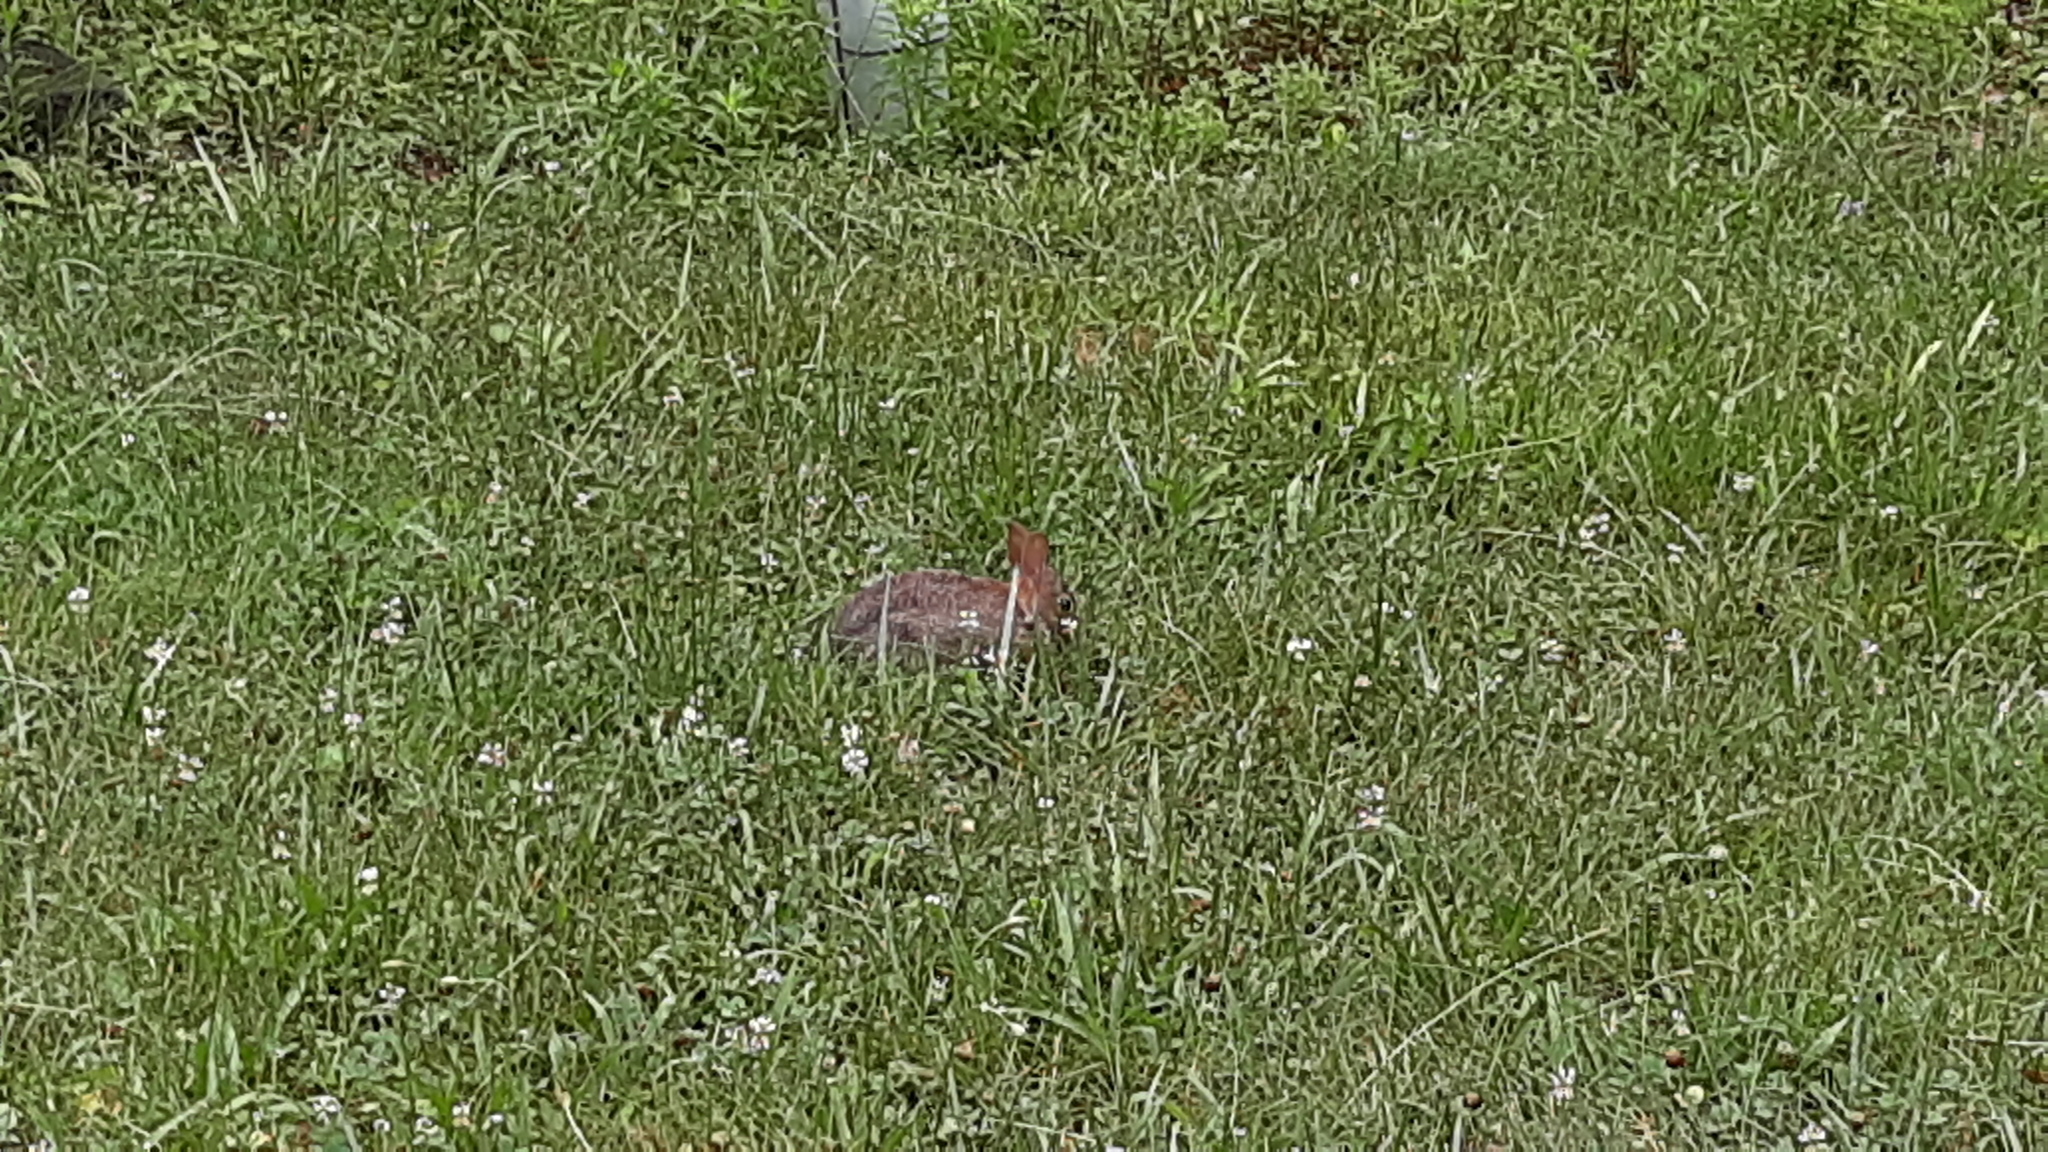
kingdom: Animalia
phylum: Chordata
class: Mammalia
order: Lagomorpha
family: Leporidae
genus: Sylvilagus
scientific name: Sylvilagus floridanus
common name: Eastern cottontail
